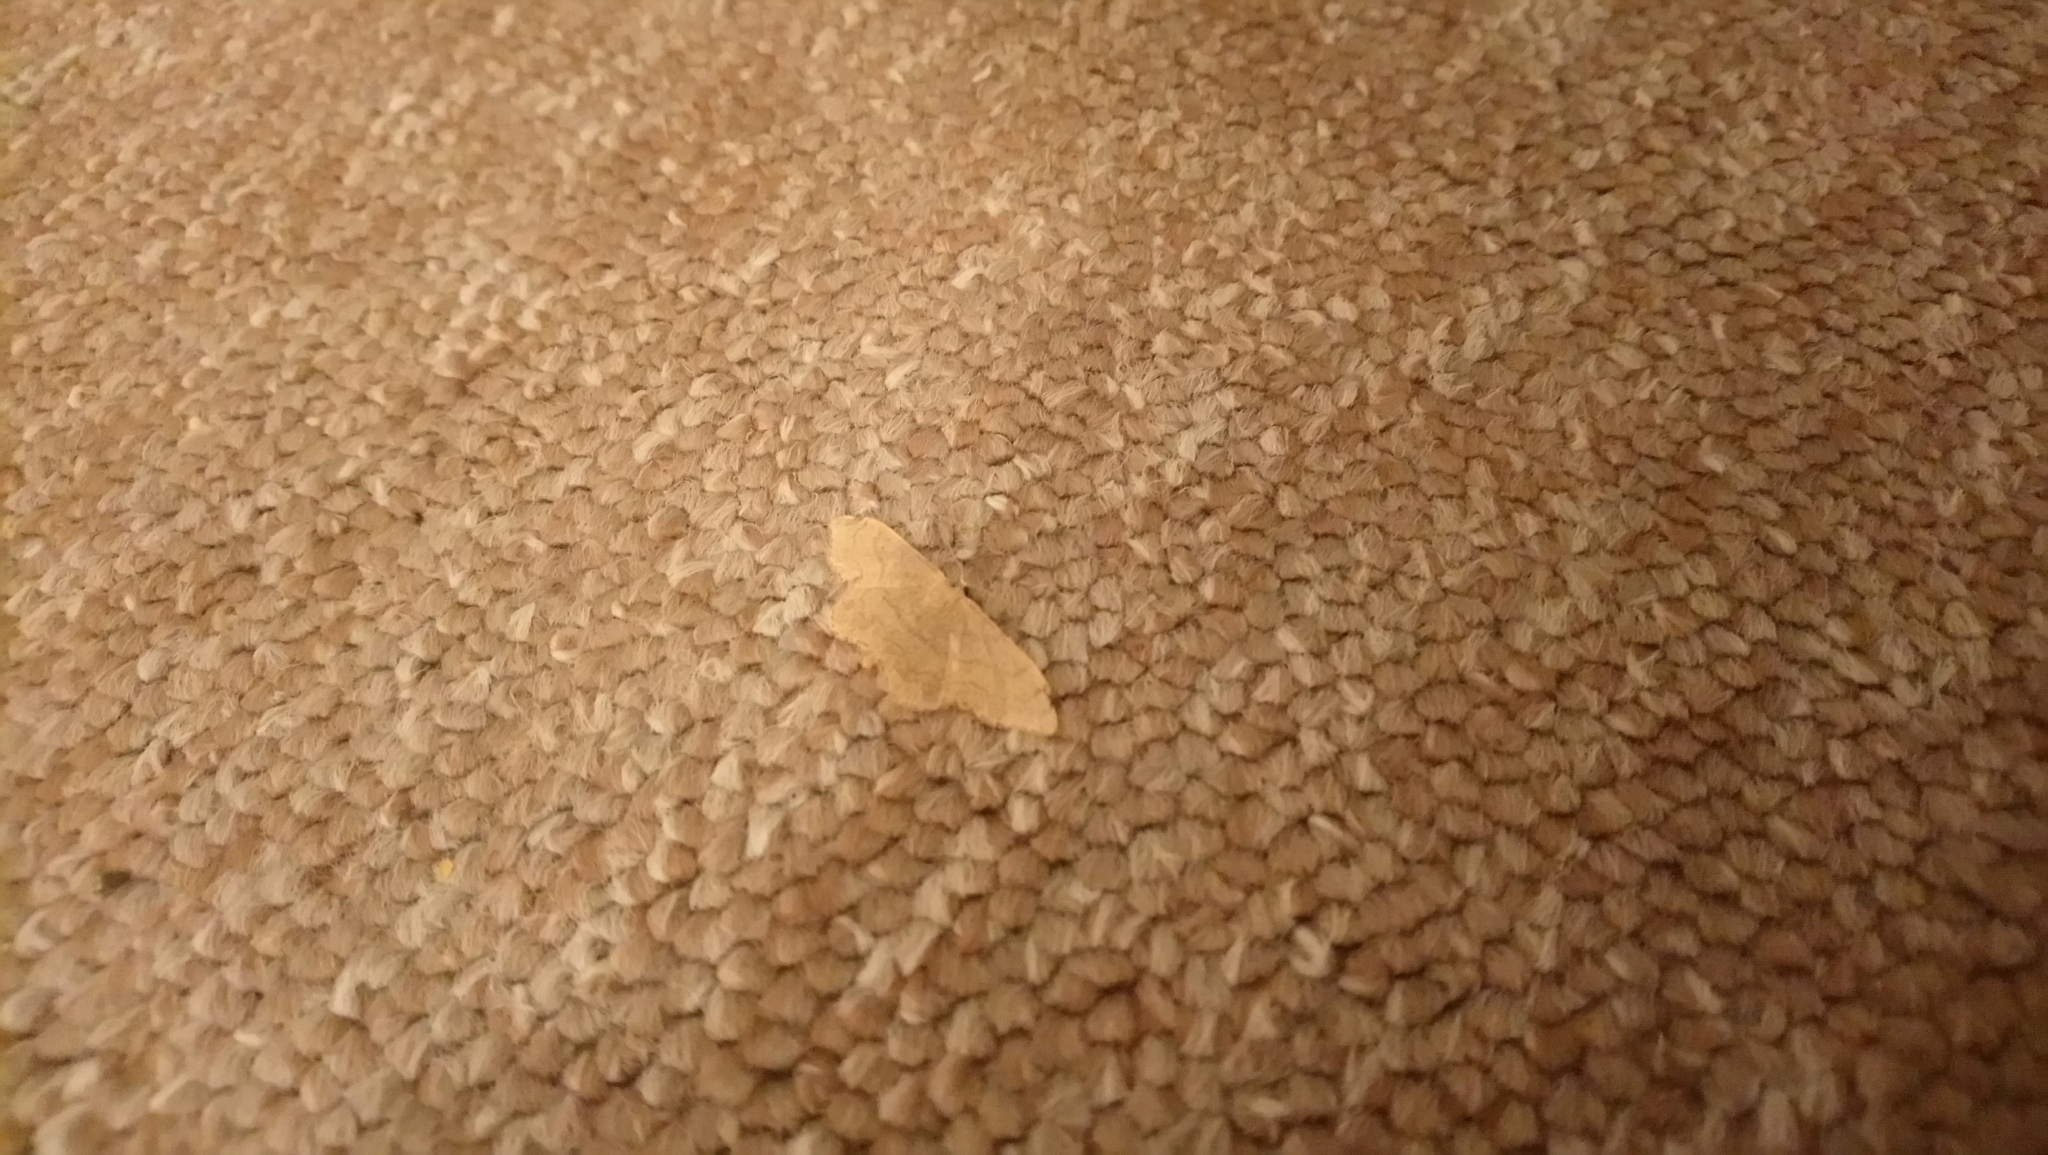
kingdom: Animalia
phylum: Arthropoda
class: Insecta
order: Lepidoptera
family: Geometridae
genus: Idaea
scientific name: Idaea aversata
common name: Riband wave
